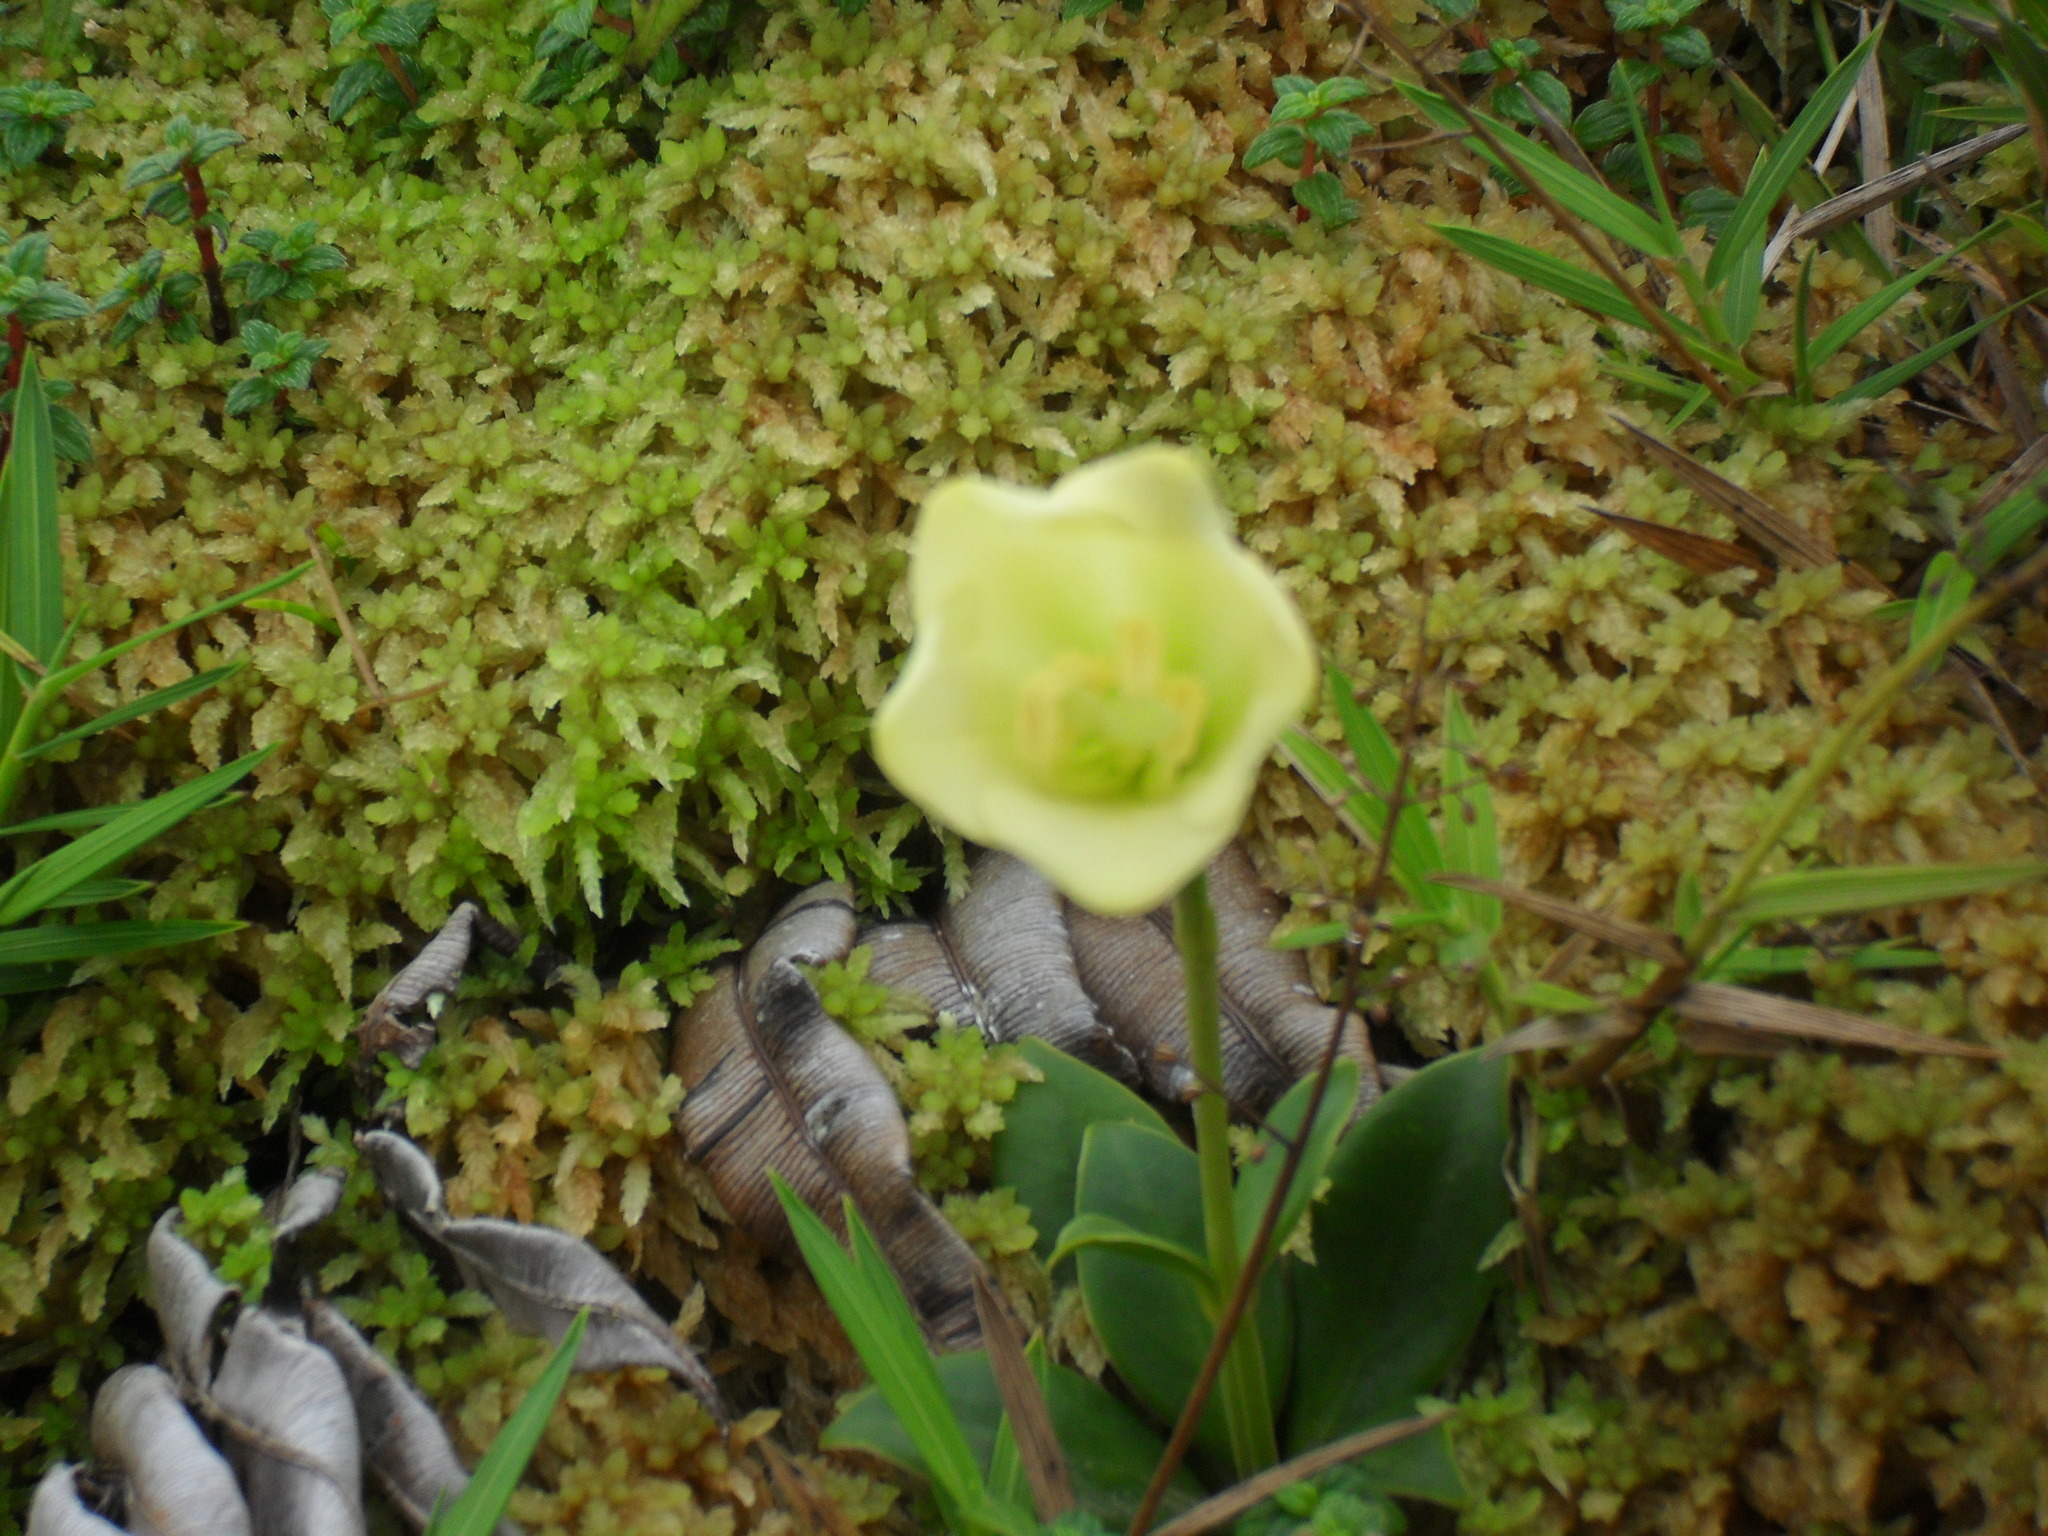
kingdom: Plantae
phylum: Tracheophyta
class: Magnoliopsida
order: Gentianales
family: Gentianaceae
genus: Symbolanthus
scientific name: Symbolanthus frigidus
